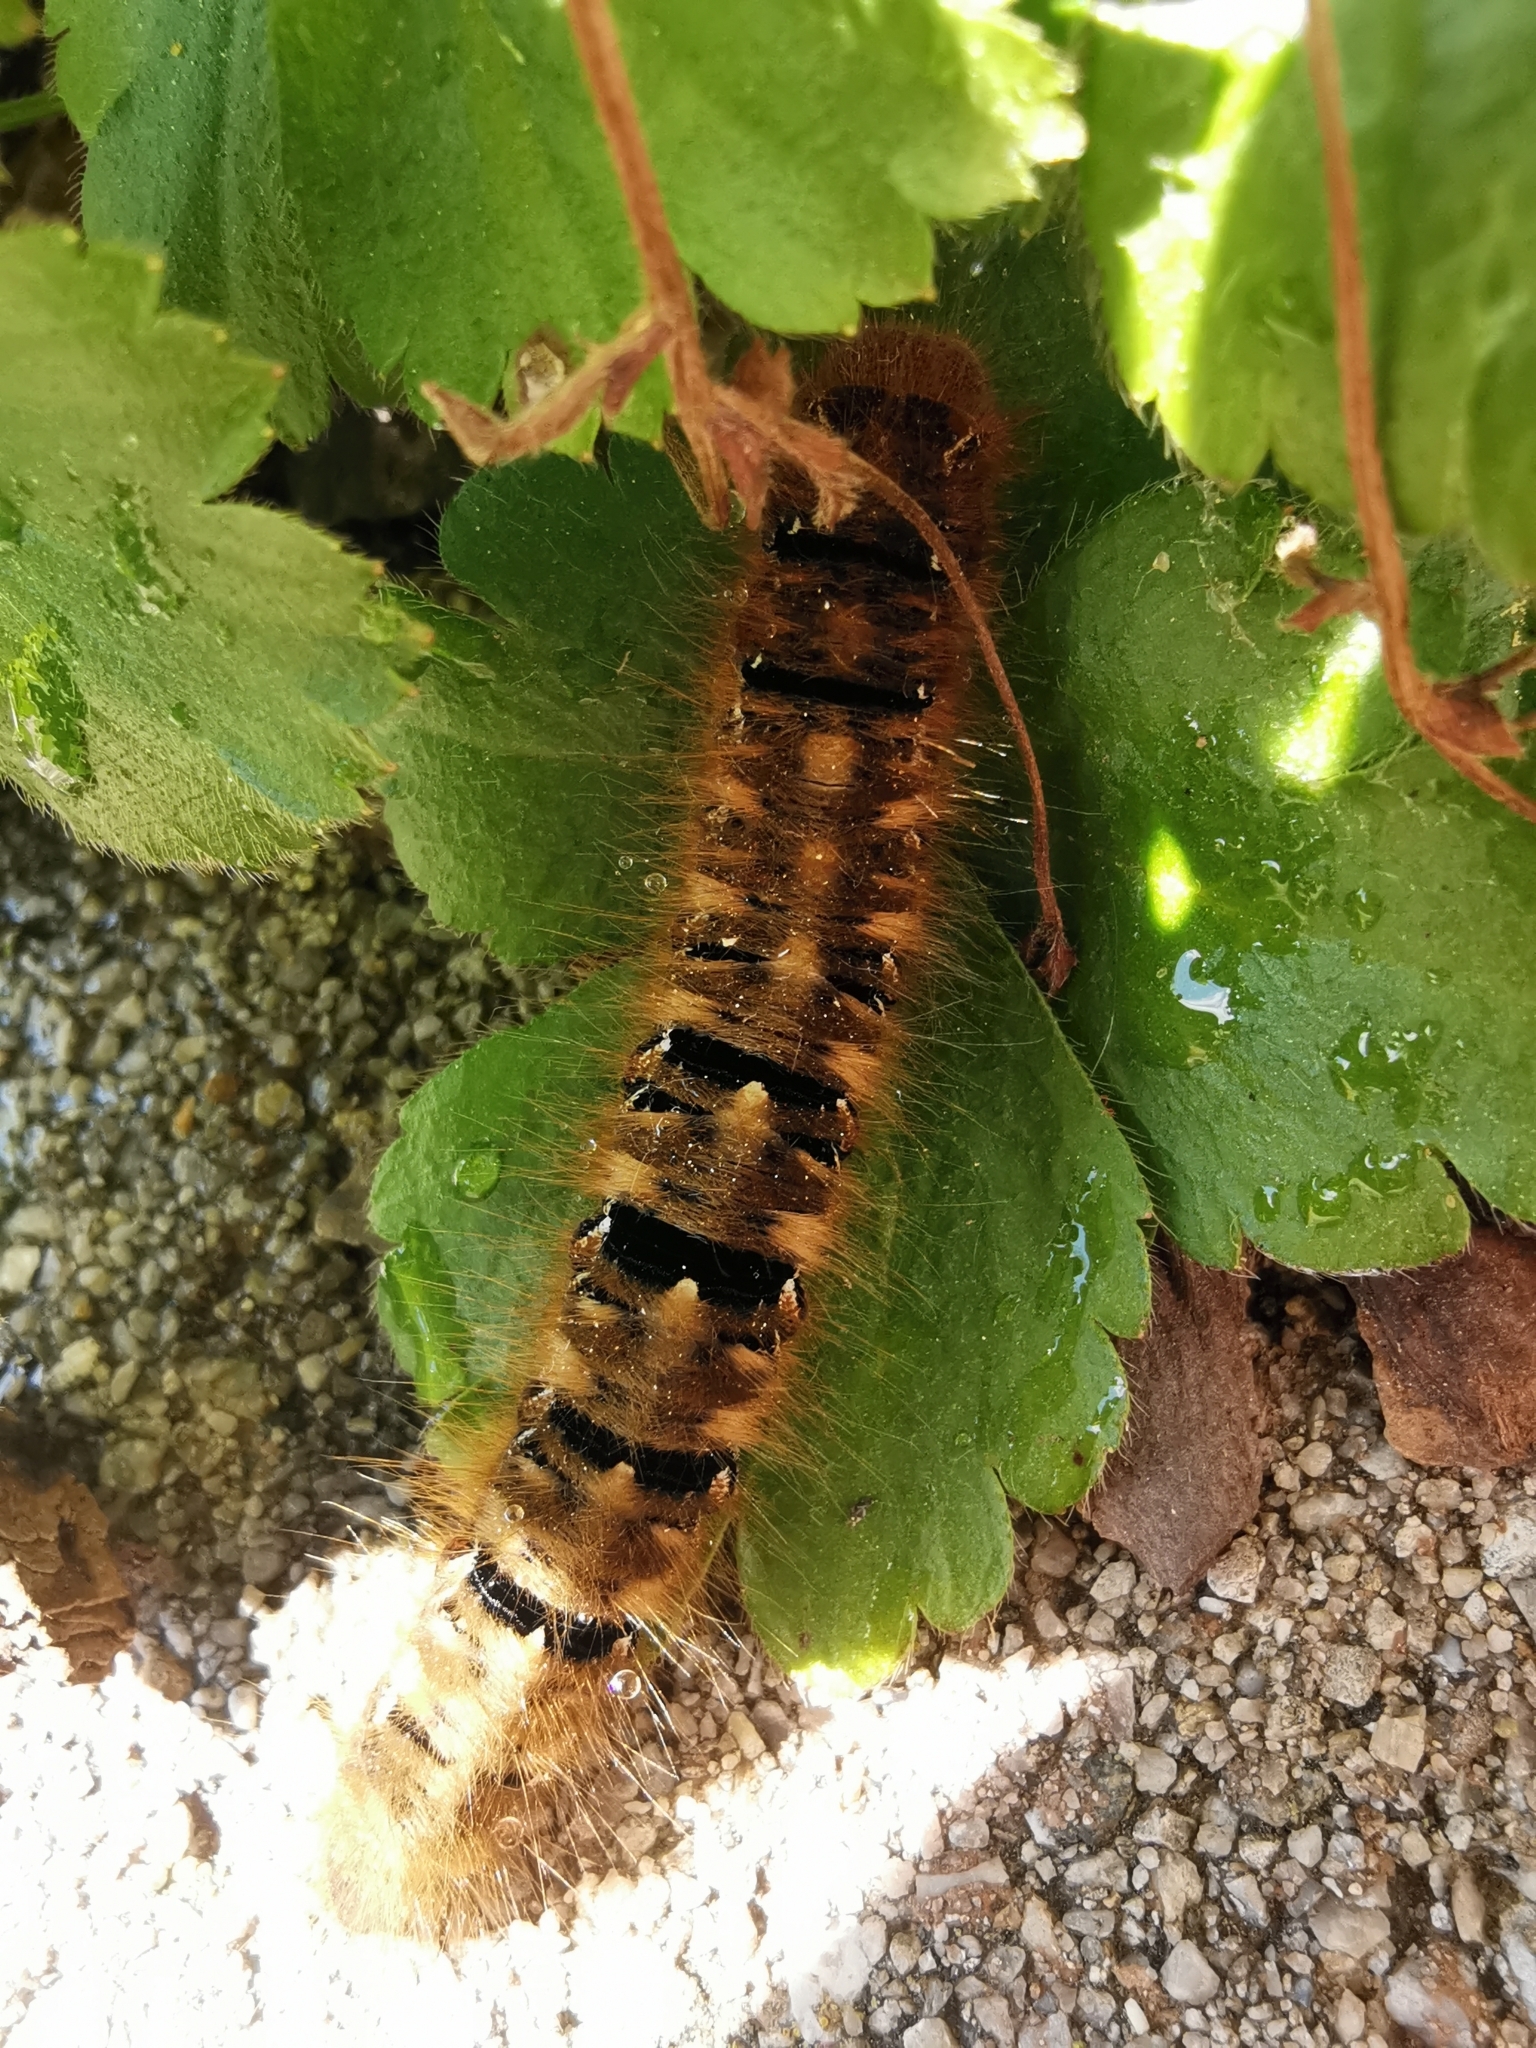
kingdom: Animalia
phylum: Arthropoda
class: Insecta
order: Lepidoptera
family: Lasiocampidae
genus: Lasiocampa
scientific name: Lasiocampa quercus
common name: Oak eggar
